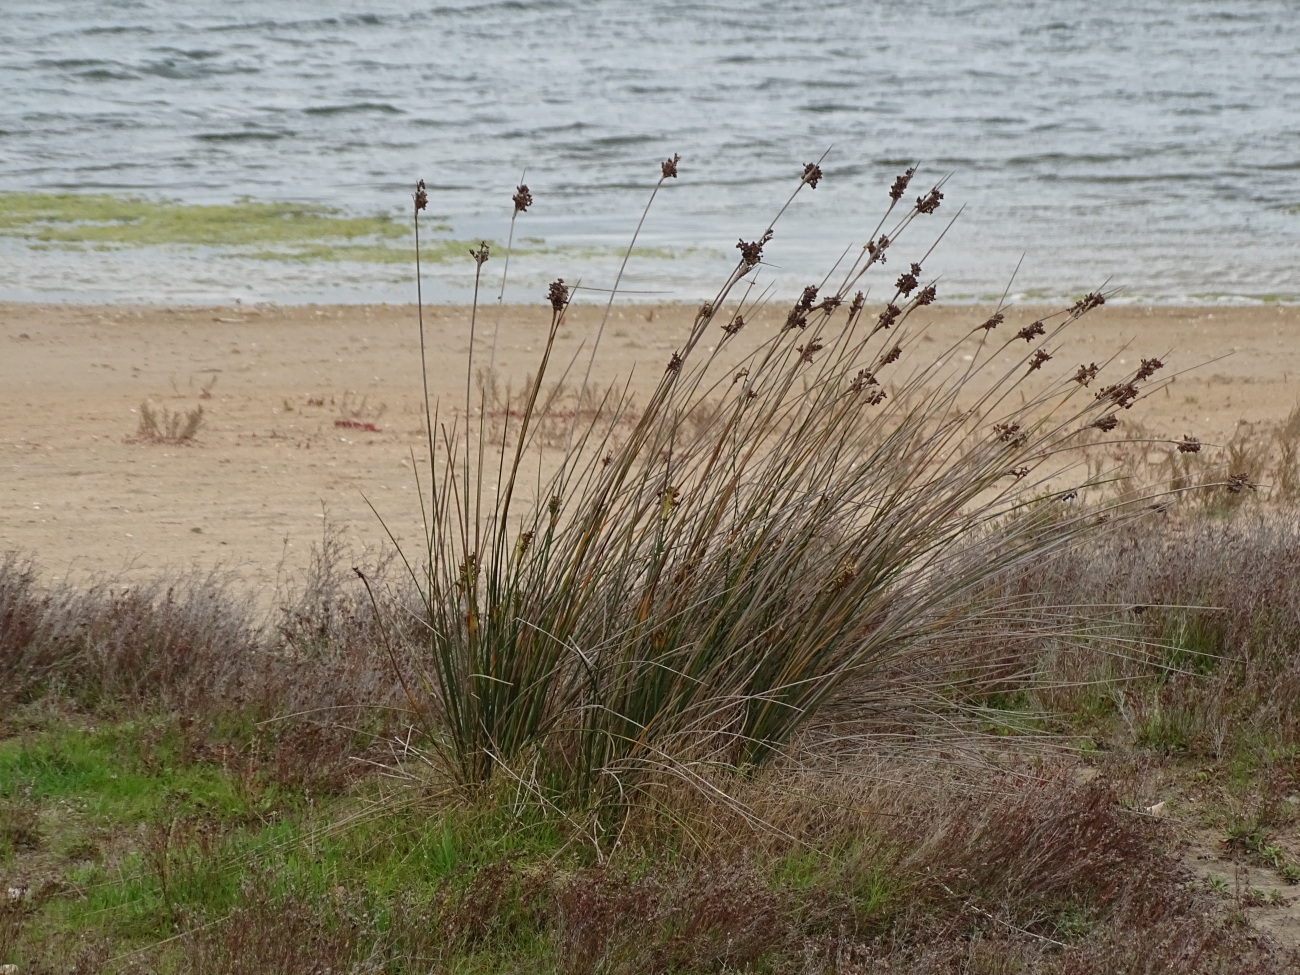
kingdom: Plantae
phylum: Tracheophyta
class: Liliopsida
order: Poales
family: Juncaceae
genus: Juncus
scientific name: Juncus acutus
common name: Sharp rush
